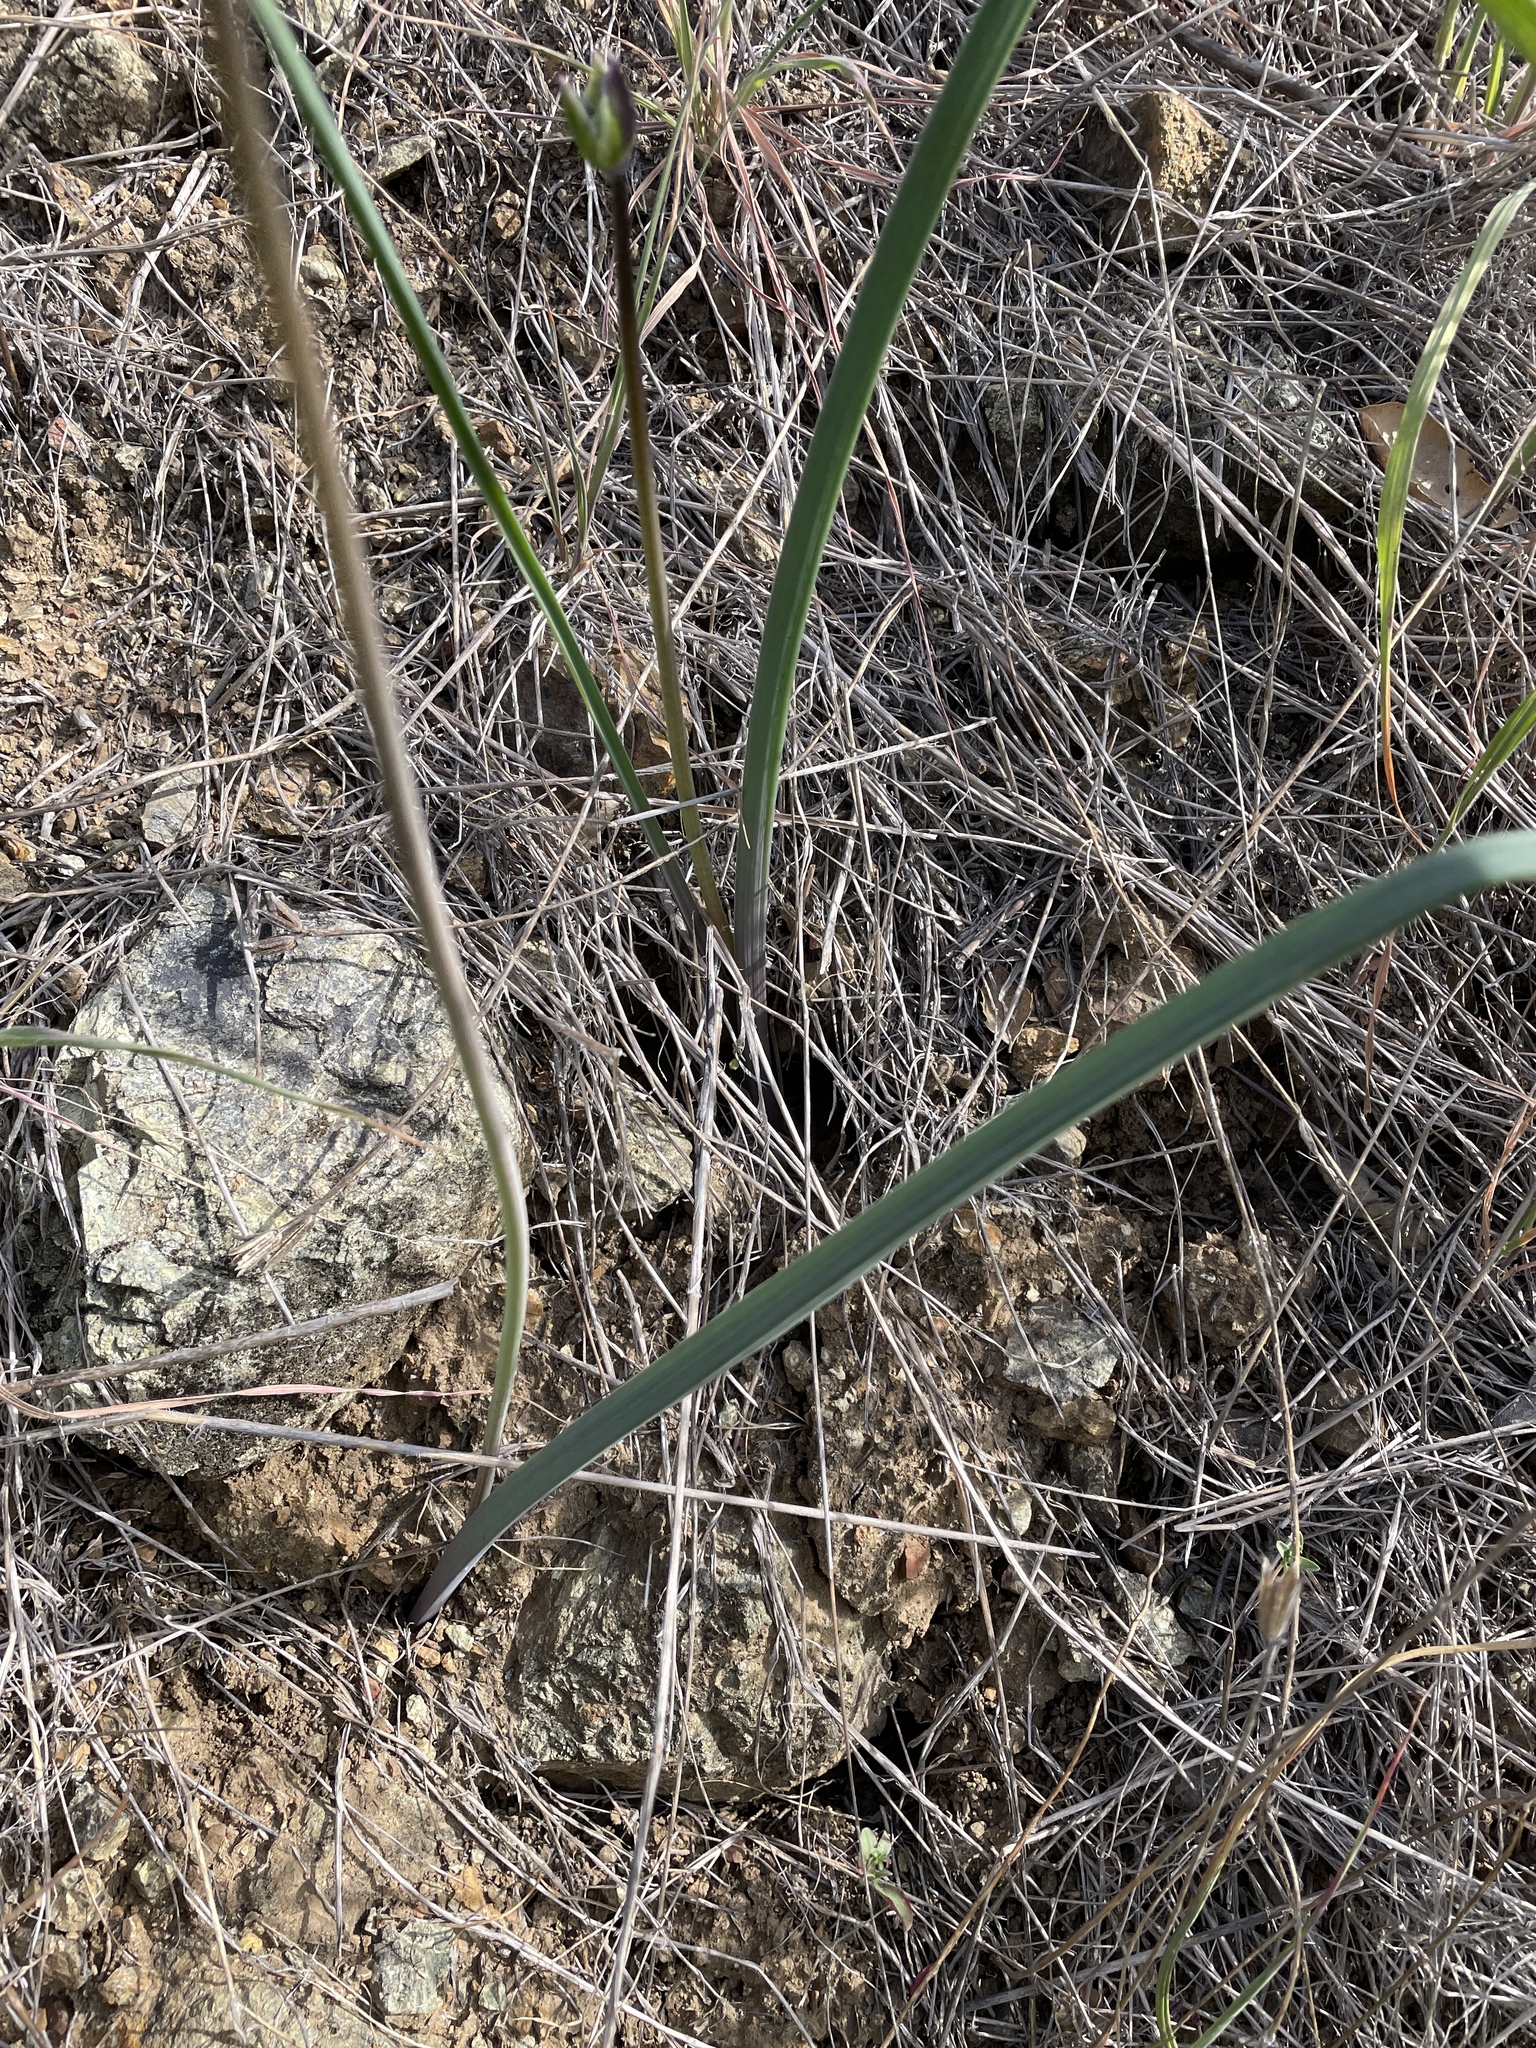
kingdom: Plantae
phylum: Tracheophyta
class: Liliopsida
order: Asparagales
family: Asparagaceae
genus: Dipterostemon
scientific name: Dipterostemon capitatus
